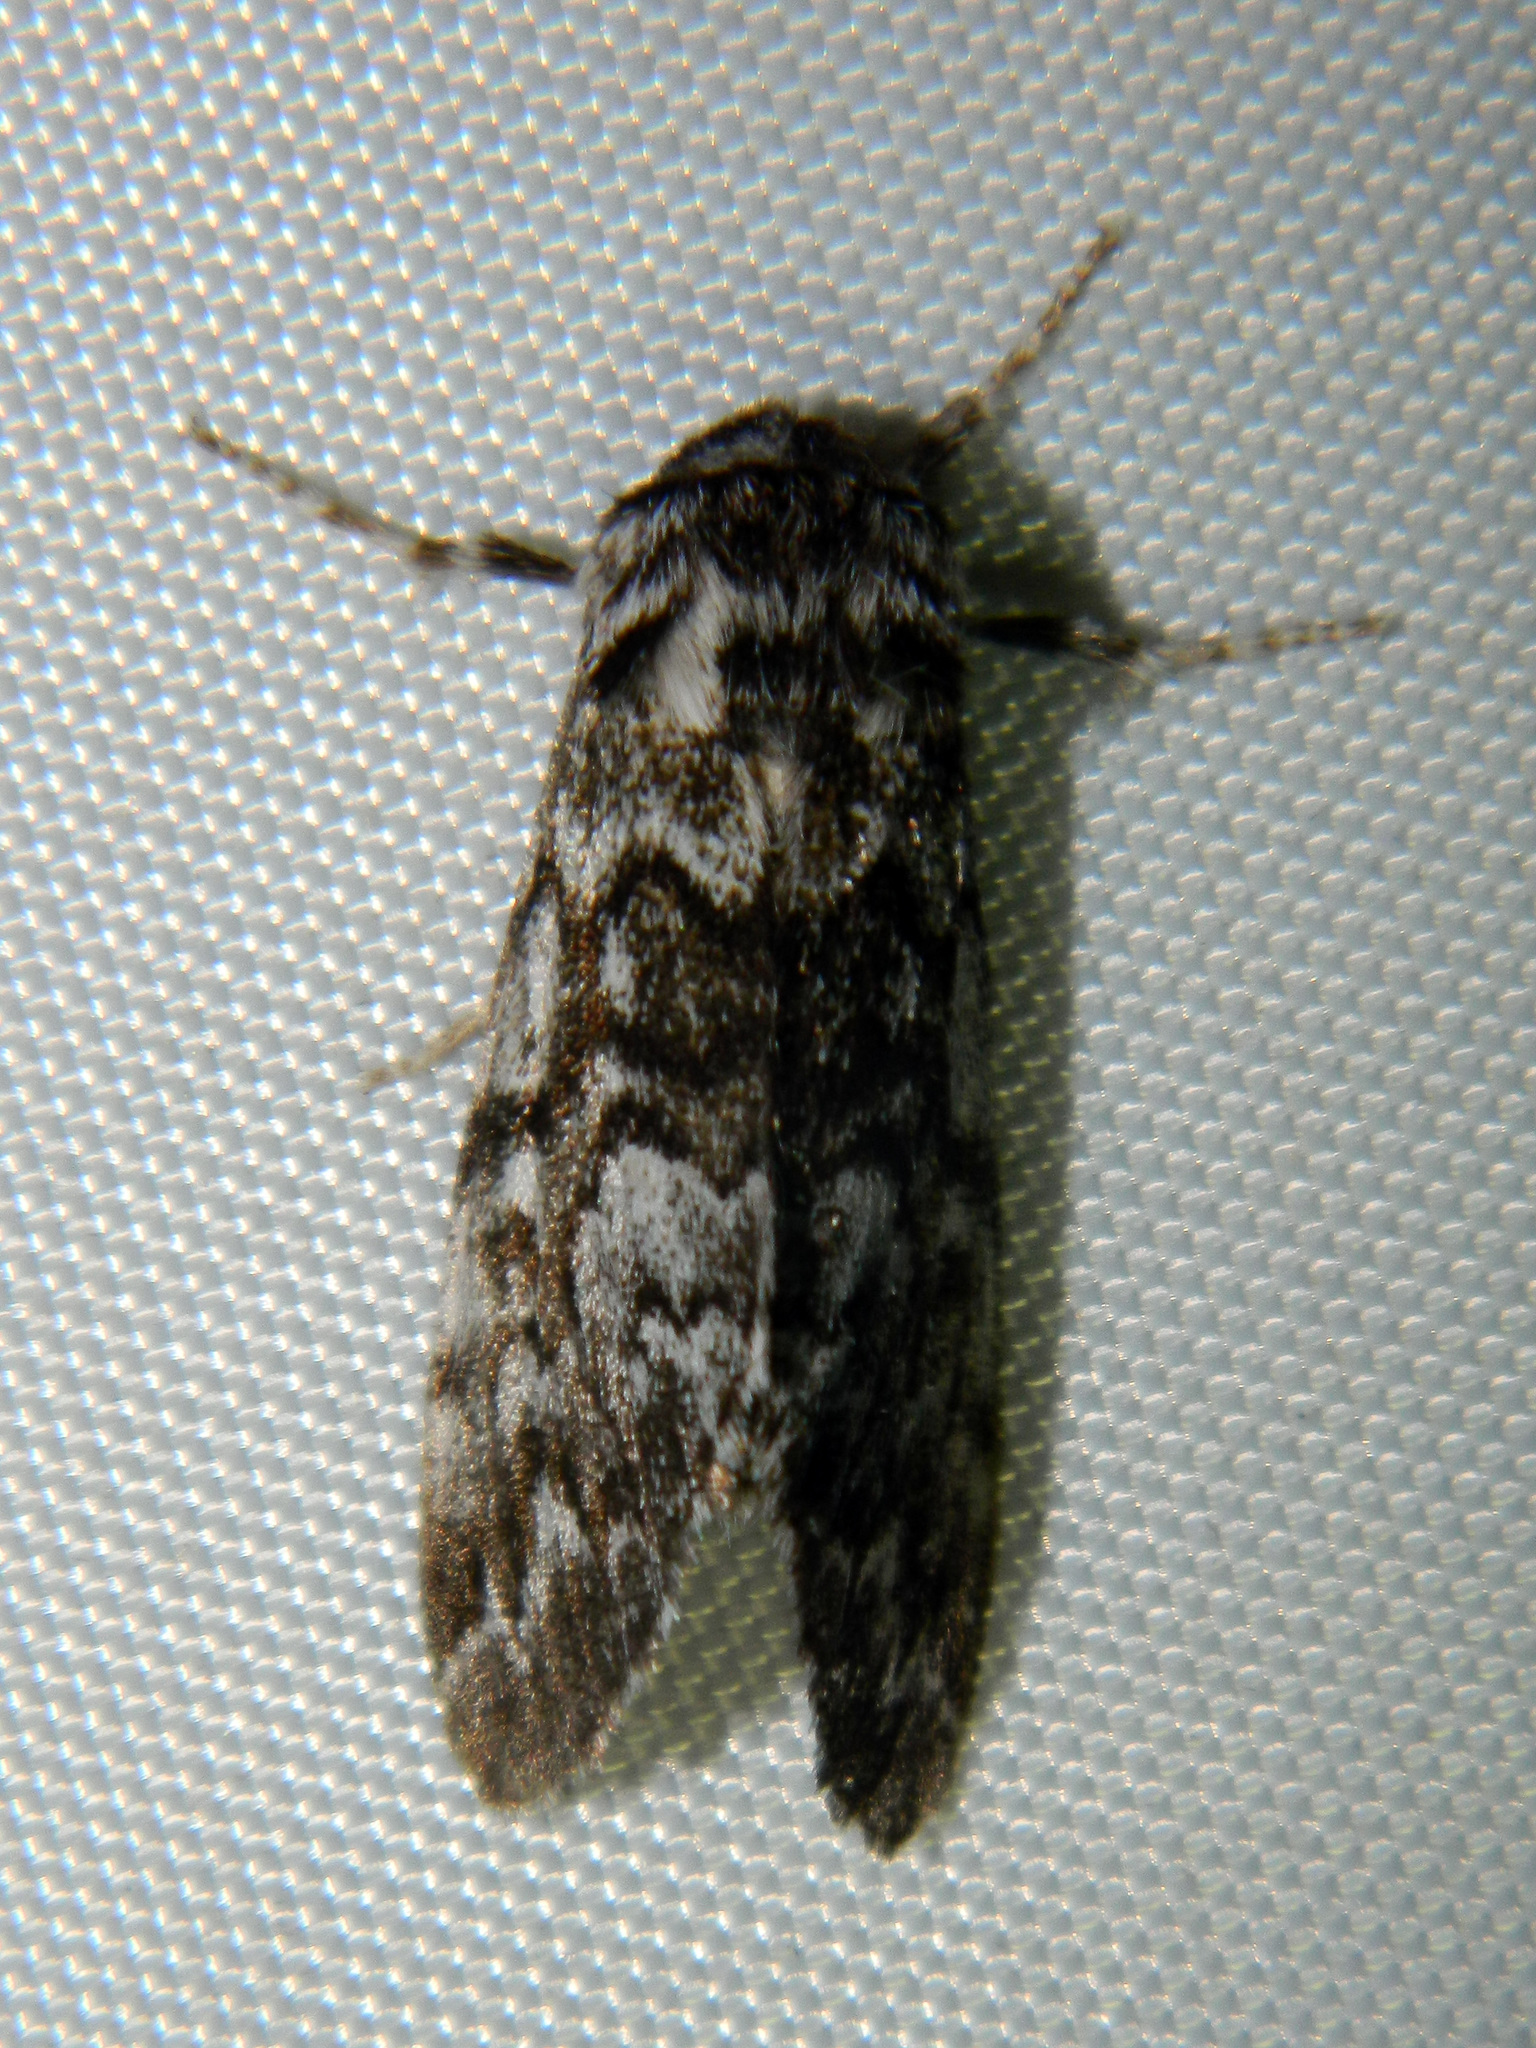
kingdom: Animalia
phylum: Arthropoda
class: Insecta
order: Lepidoptera
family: Noctuidae
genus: Panthea
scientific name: Panthea acronyctoides
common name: Black zigzag moth
